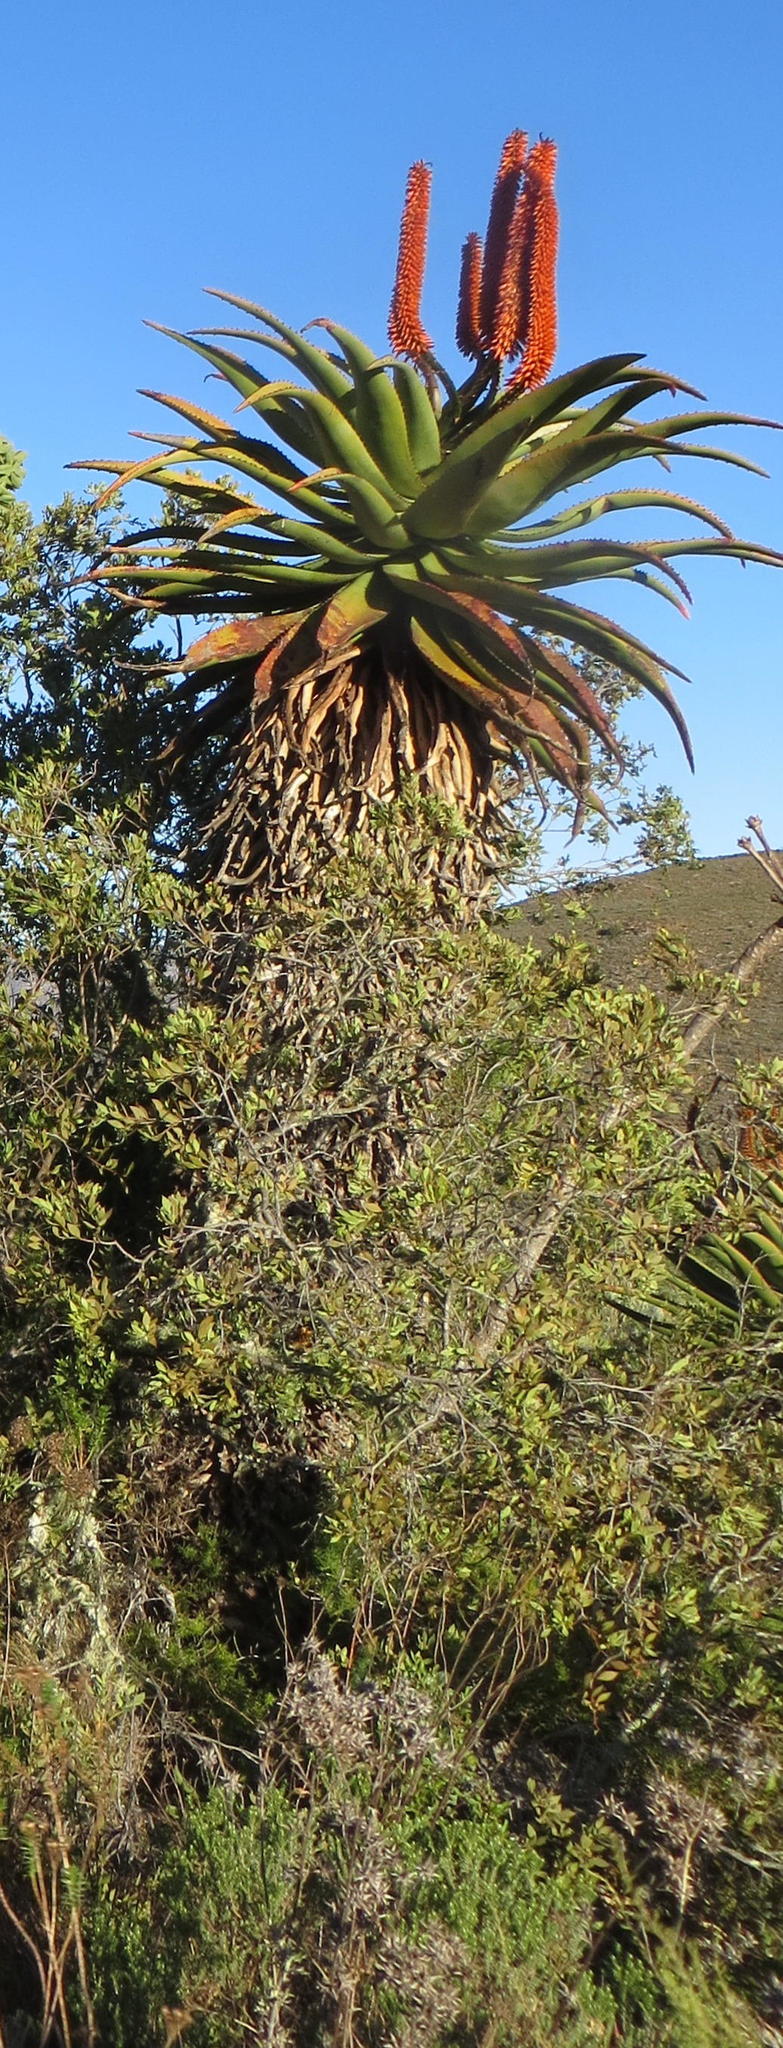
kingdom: Plantae
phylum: Tracheophyta
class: Liliopsida
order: Asparagales
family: Asphodelaceae
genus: Aloe
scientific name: Aloe ferox
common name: Bitter aloe
